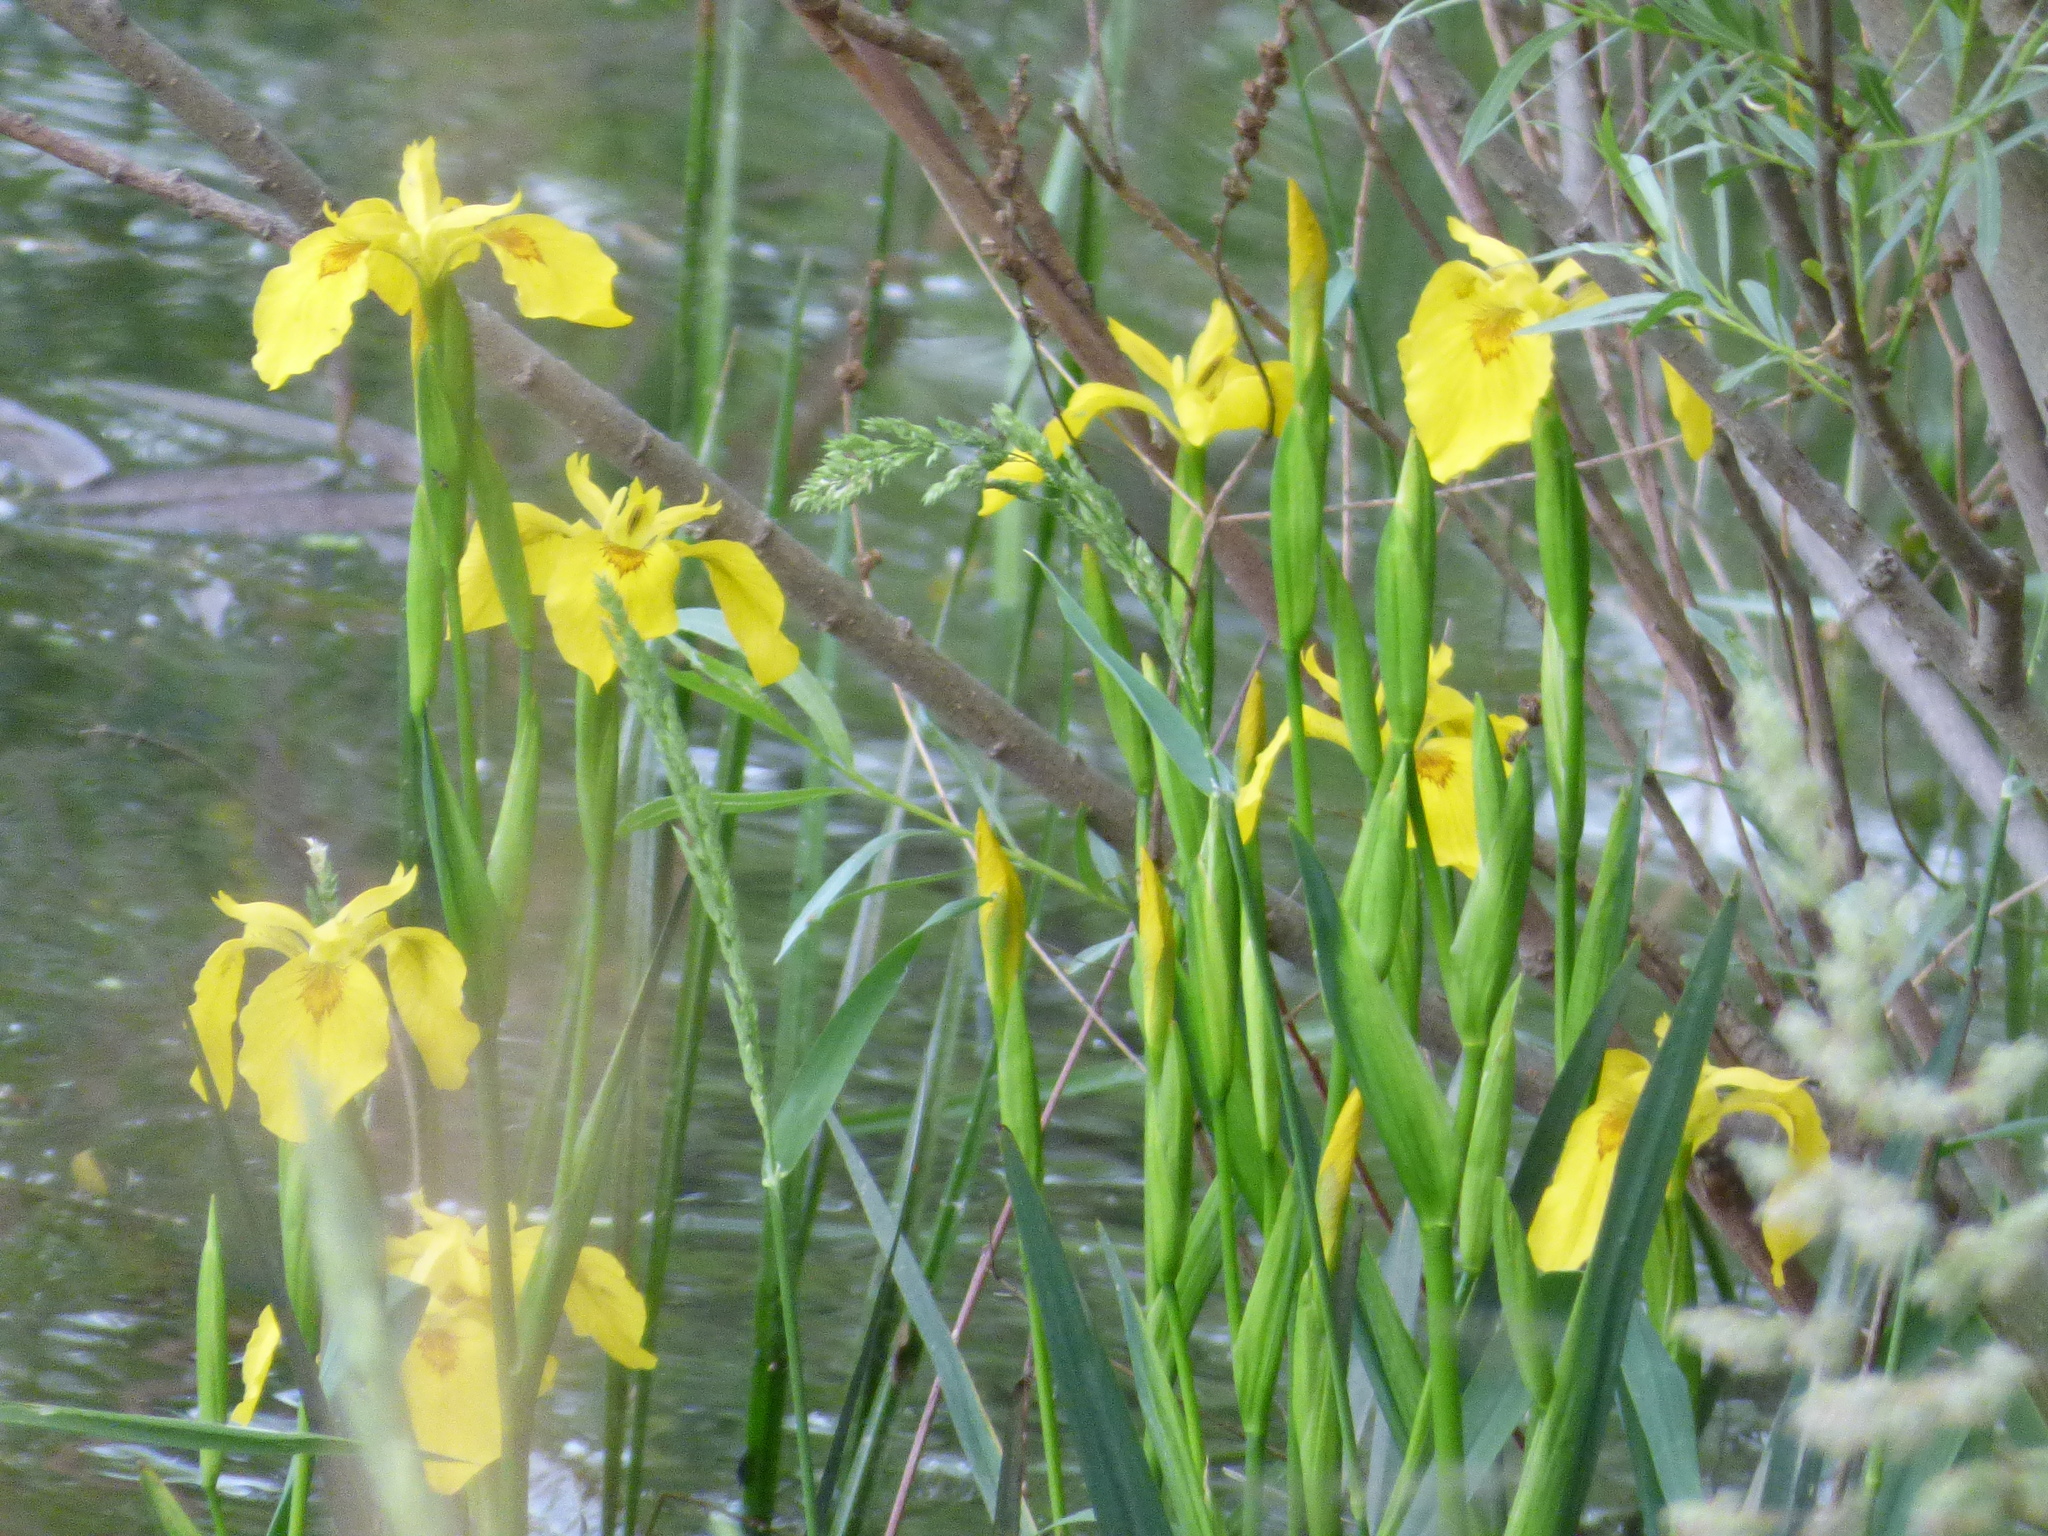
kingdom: Plantae
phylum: Tracheophyta
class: Liliopsida
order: Asparagales
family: Iridaceae
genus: Iris
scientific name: Iris pseudacorus
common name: Yellow flag
